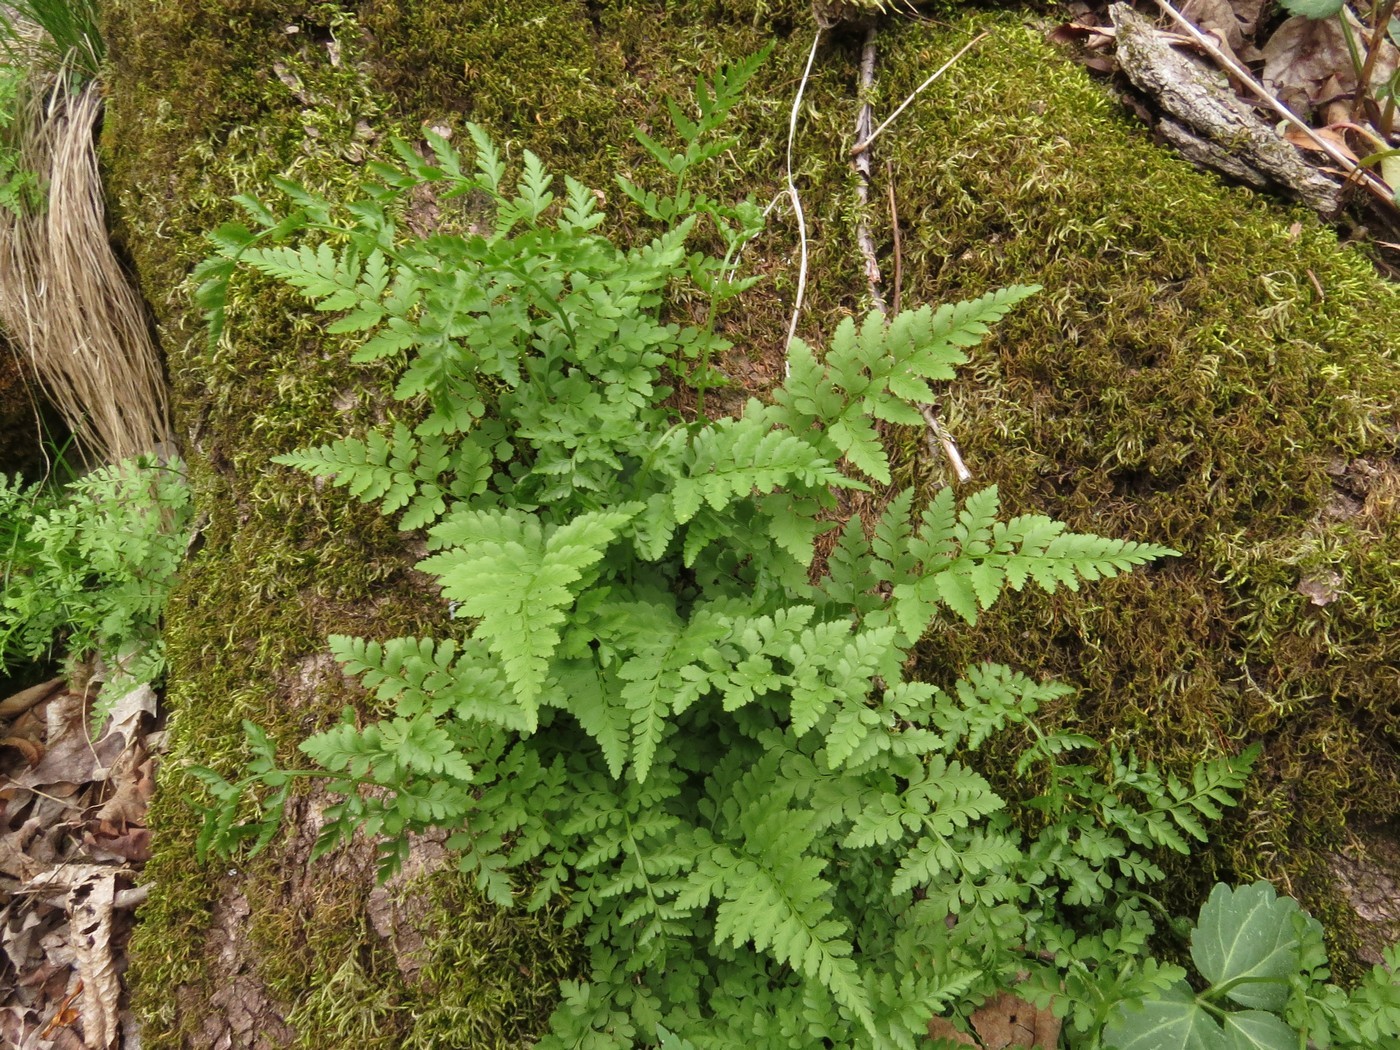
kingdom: Plantae
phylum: Tracheophyta
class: Polypodiopsida
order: Polypodiales
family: Cystopteridaceae
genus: Cystopteris
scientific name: Cystopteris protrusa
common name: Lowland brittle fern
